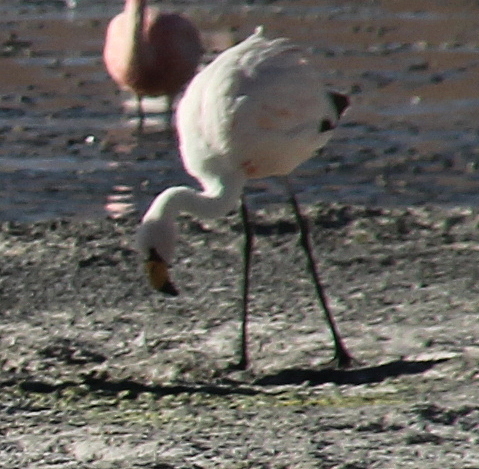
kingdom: Animalia
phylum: Chordata
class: Aves
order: Phoenicopteriformes
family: Phoenicopteridae
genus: Phoenicoparrus
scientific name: Phoenicoparrus jamesi
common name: James's flamingo
